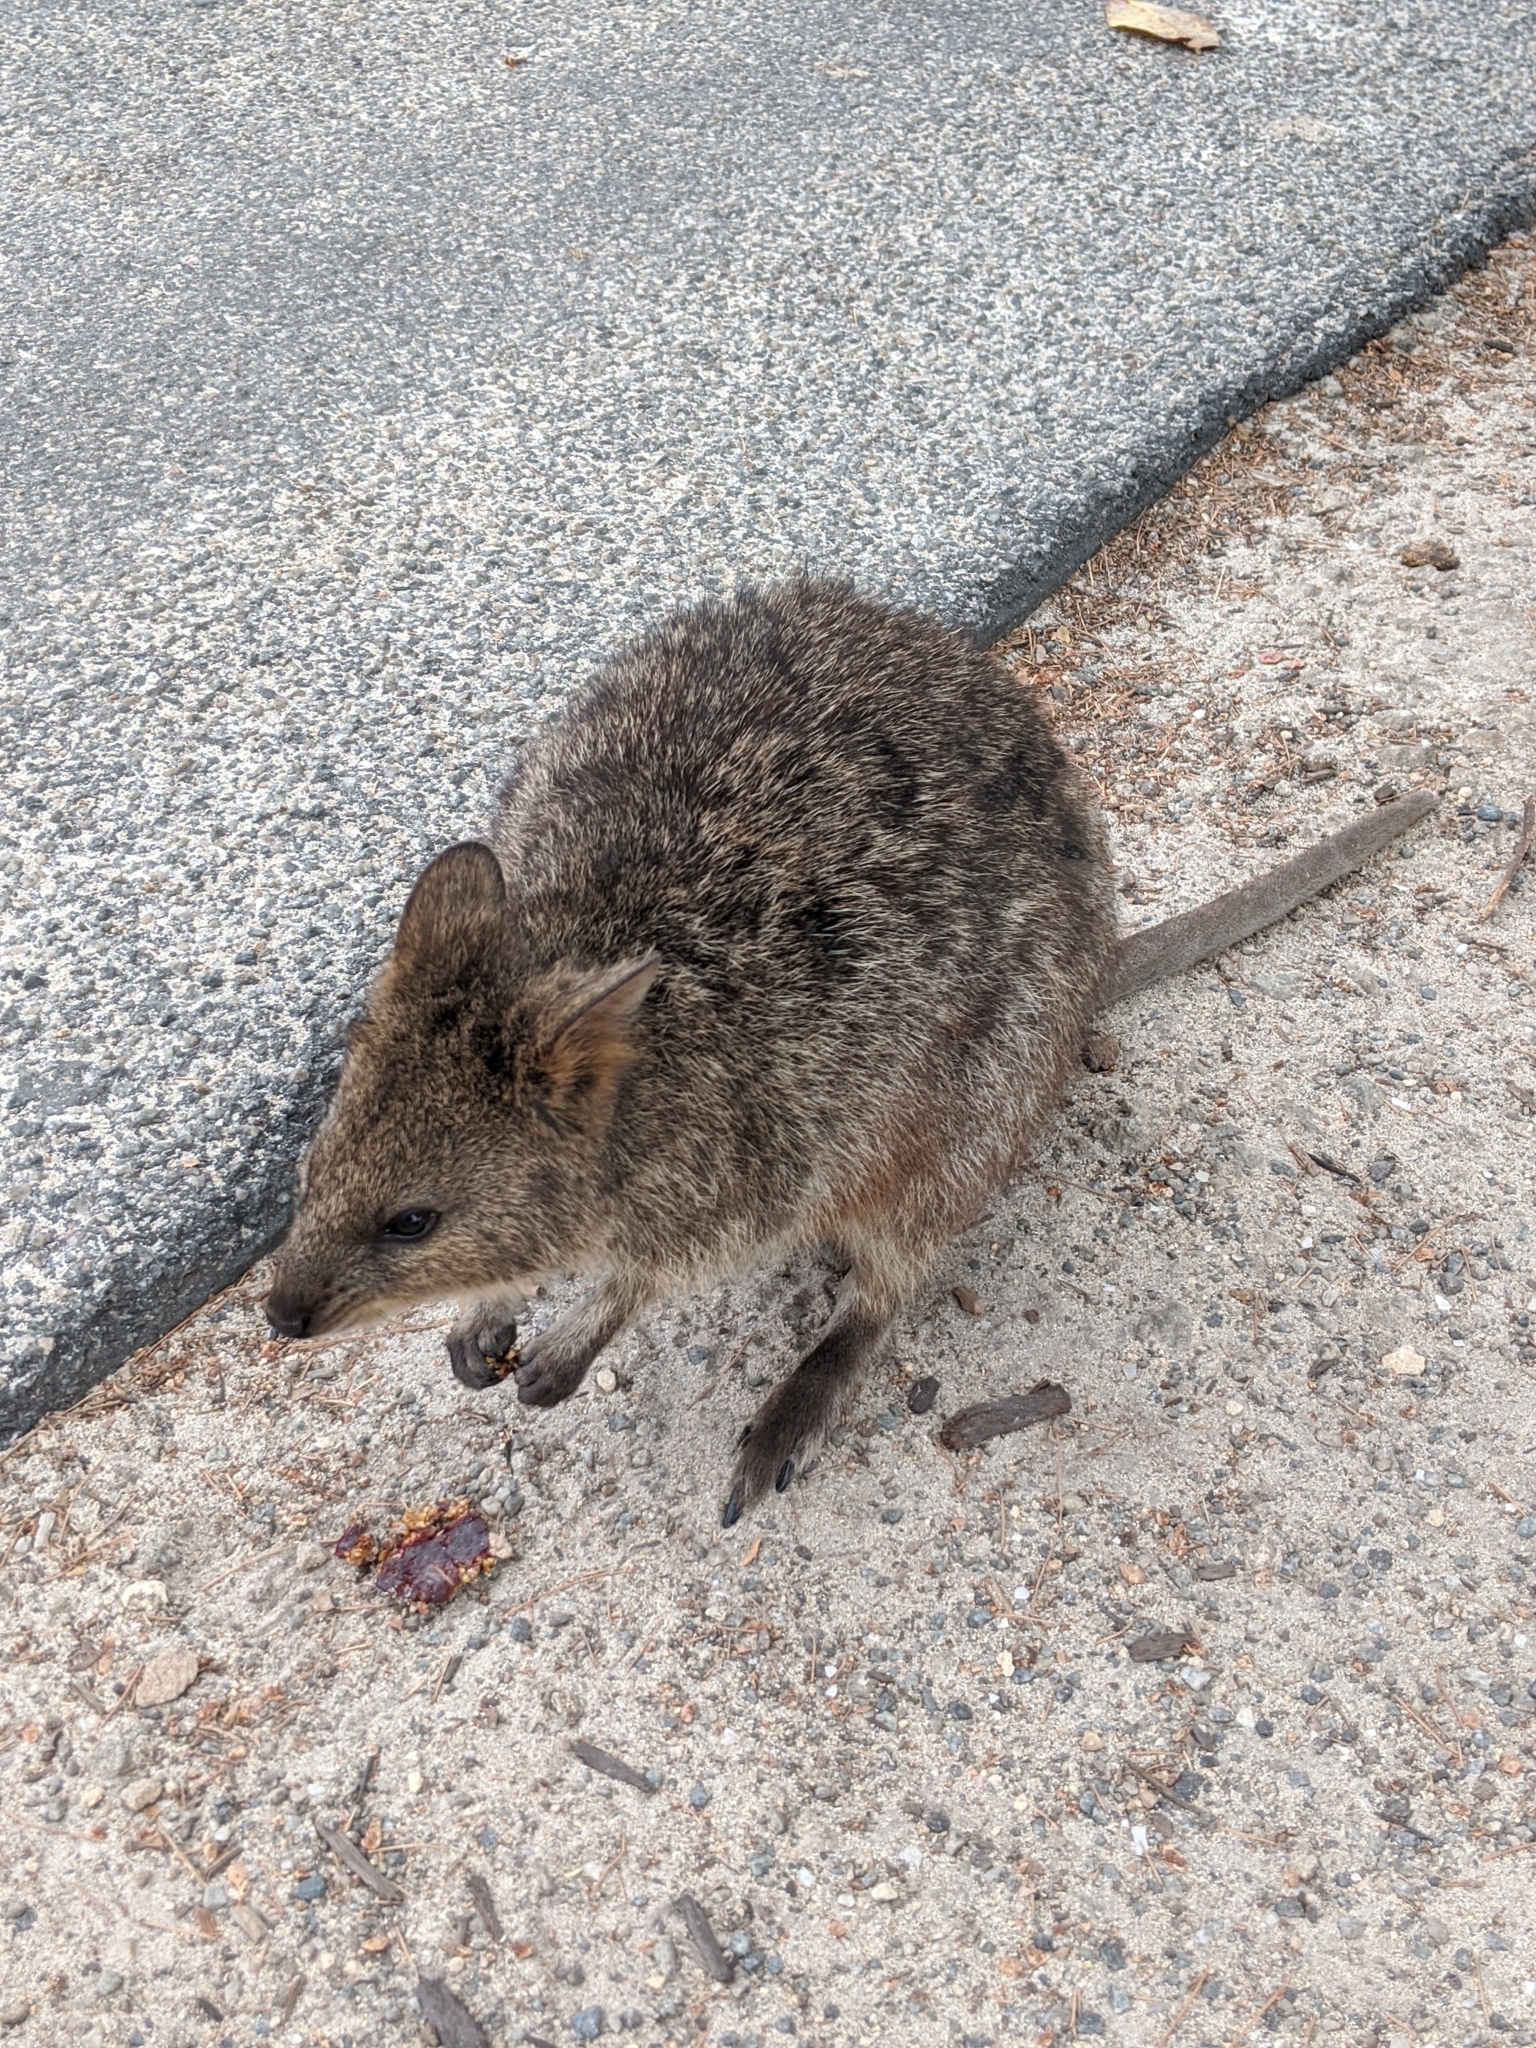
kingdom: Animalia
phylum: Chordata
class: Mammalia
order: Diprotodontia
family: Macropodidae
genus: Setonix
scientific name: Setonix brachyurus
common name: Quokka
